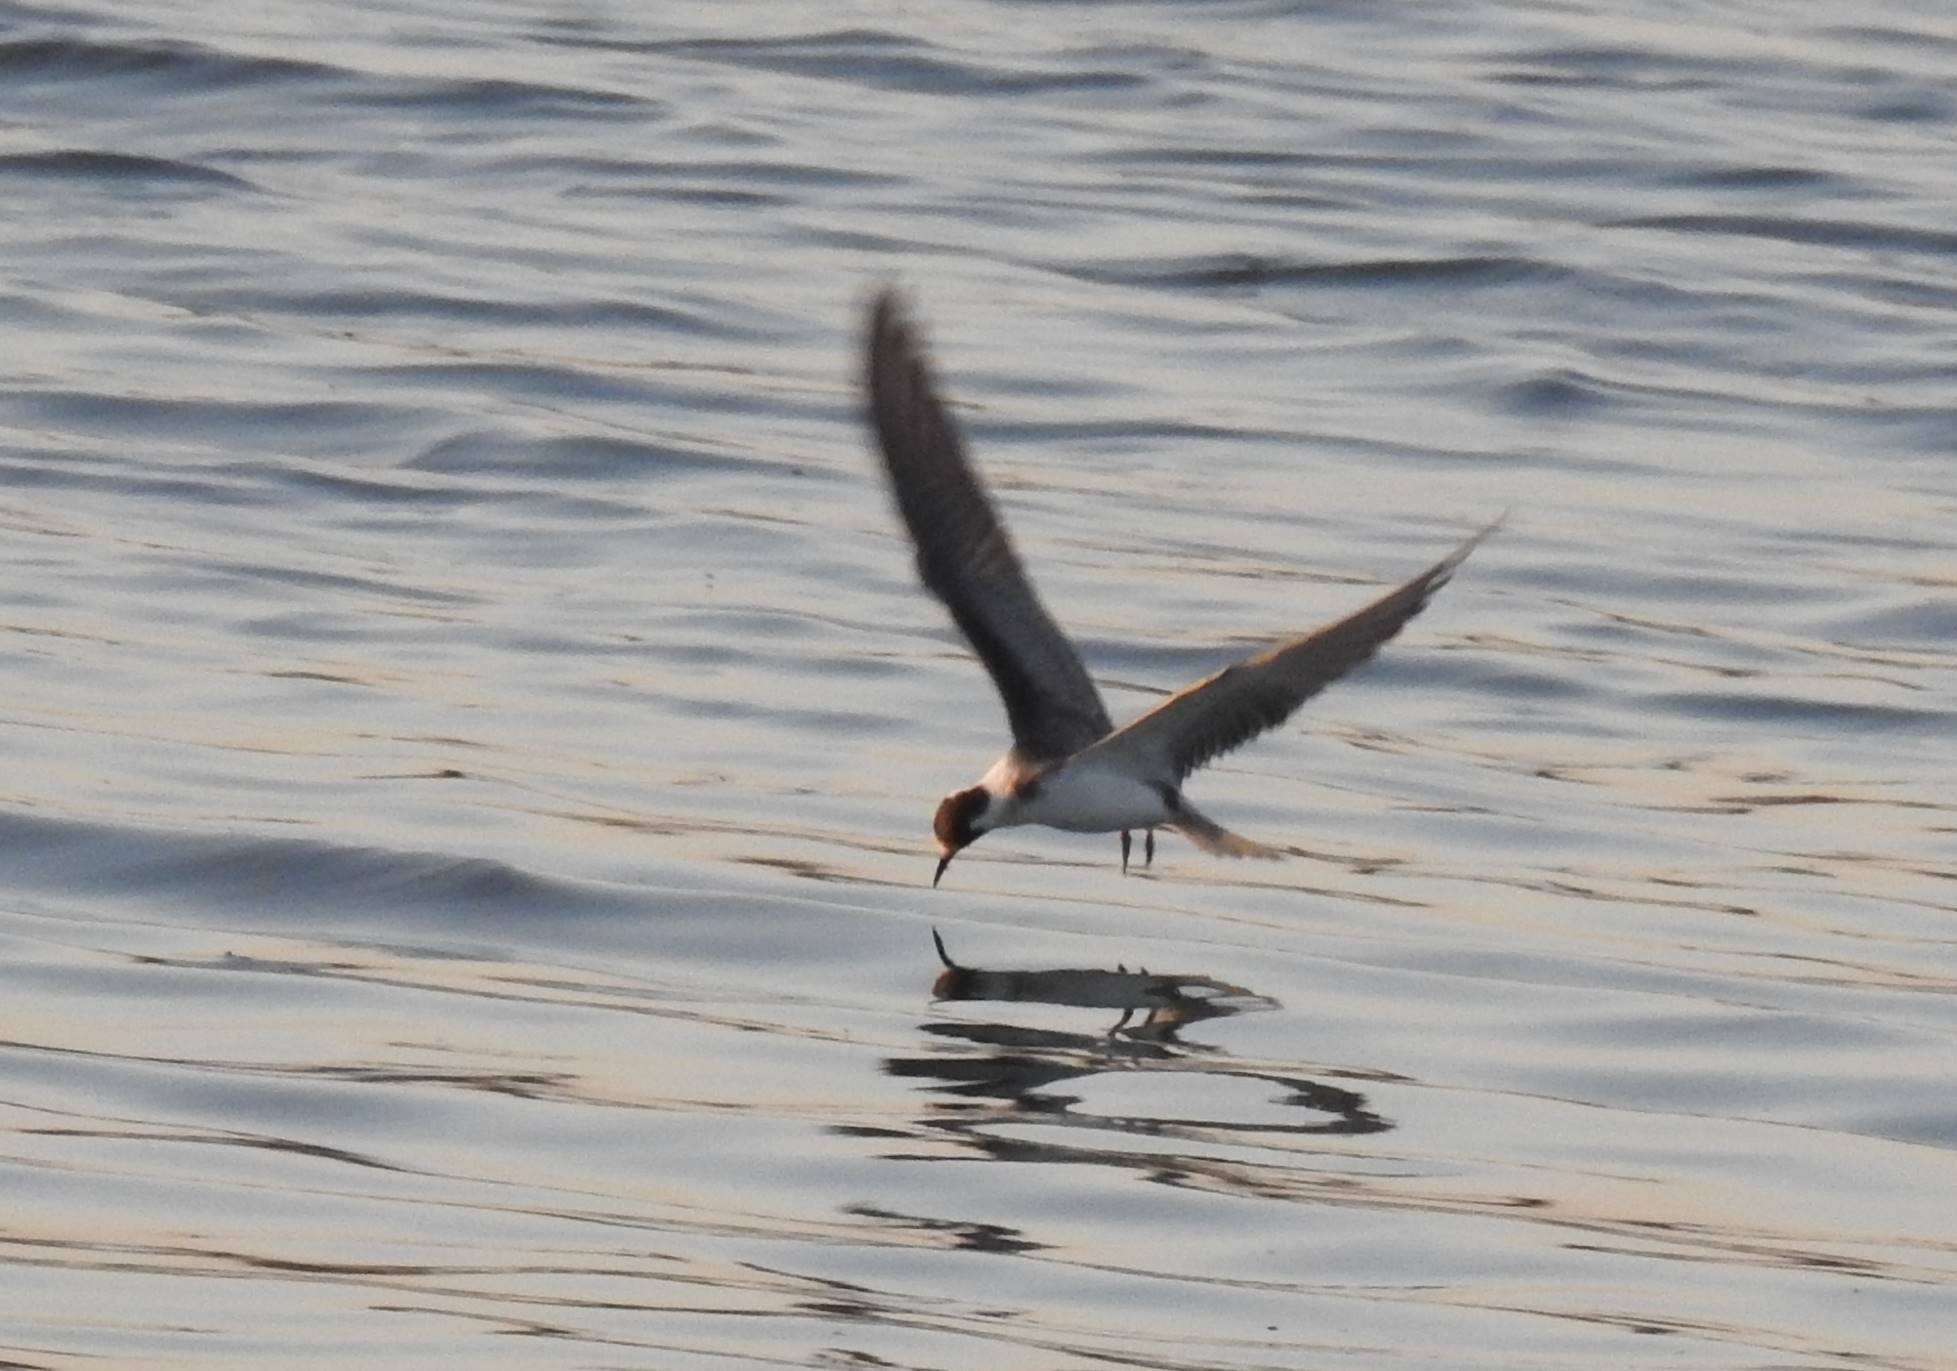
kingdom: Animalia
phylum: Chordata
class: Aves
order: Charadriiformes
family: Laridae
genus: Chlidonias
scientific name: Chlidonias niger
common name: Black tern
